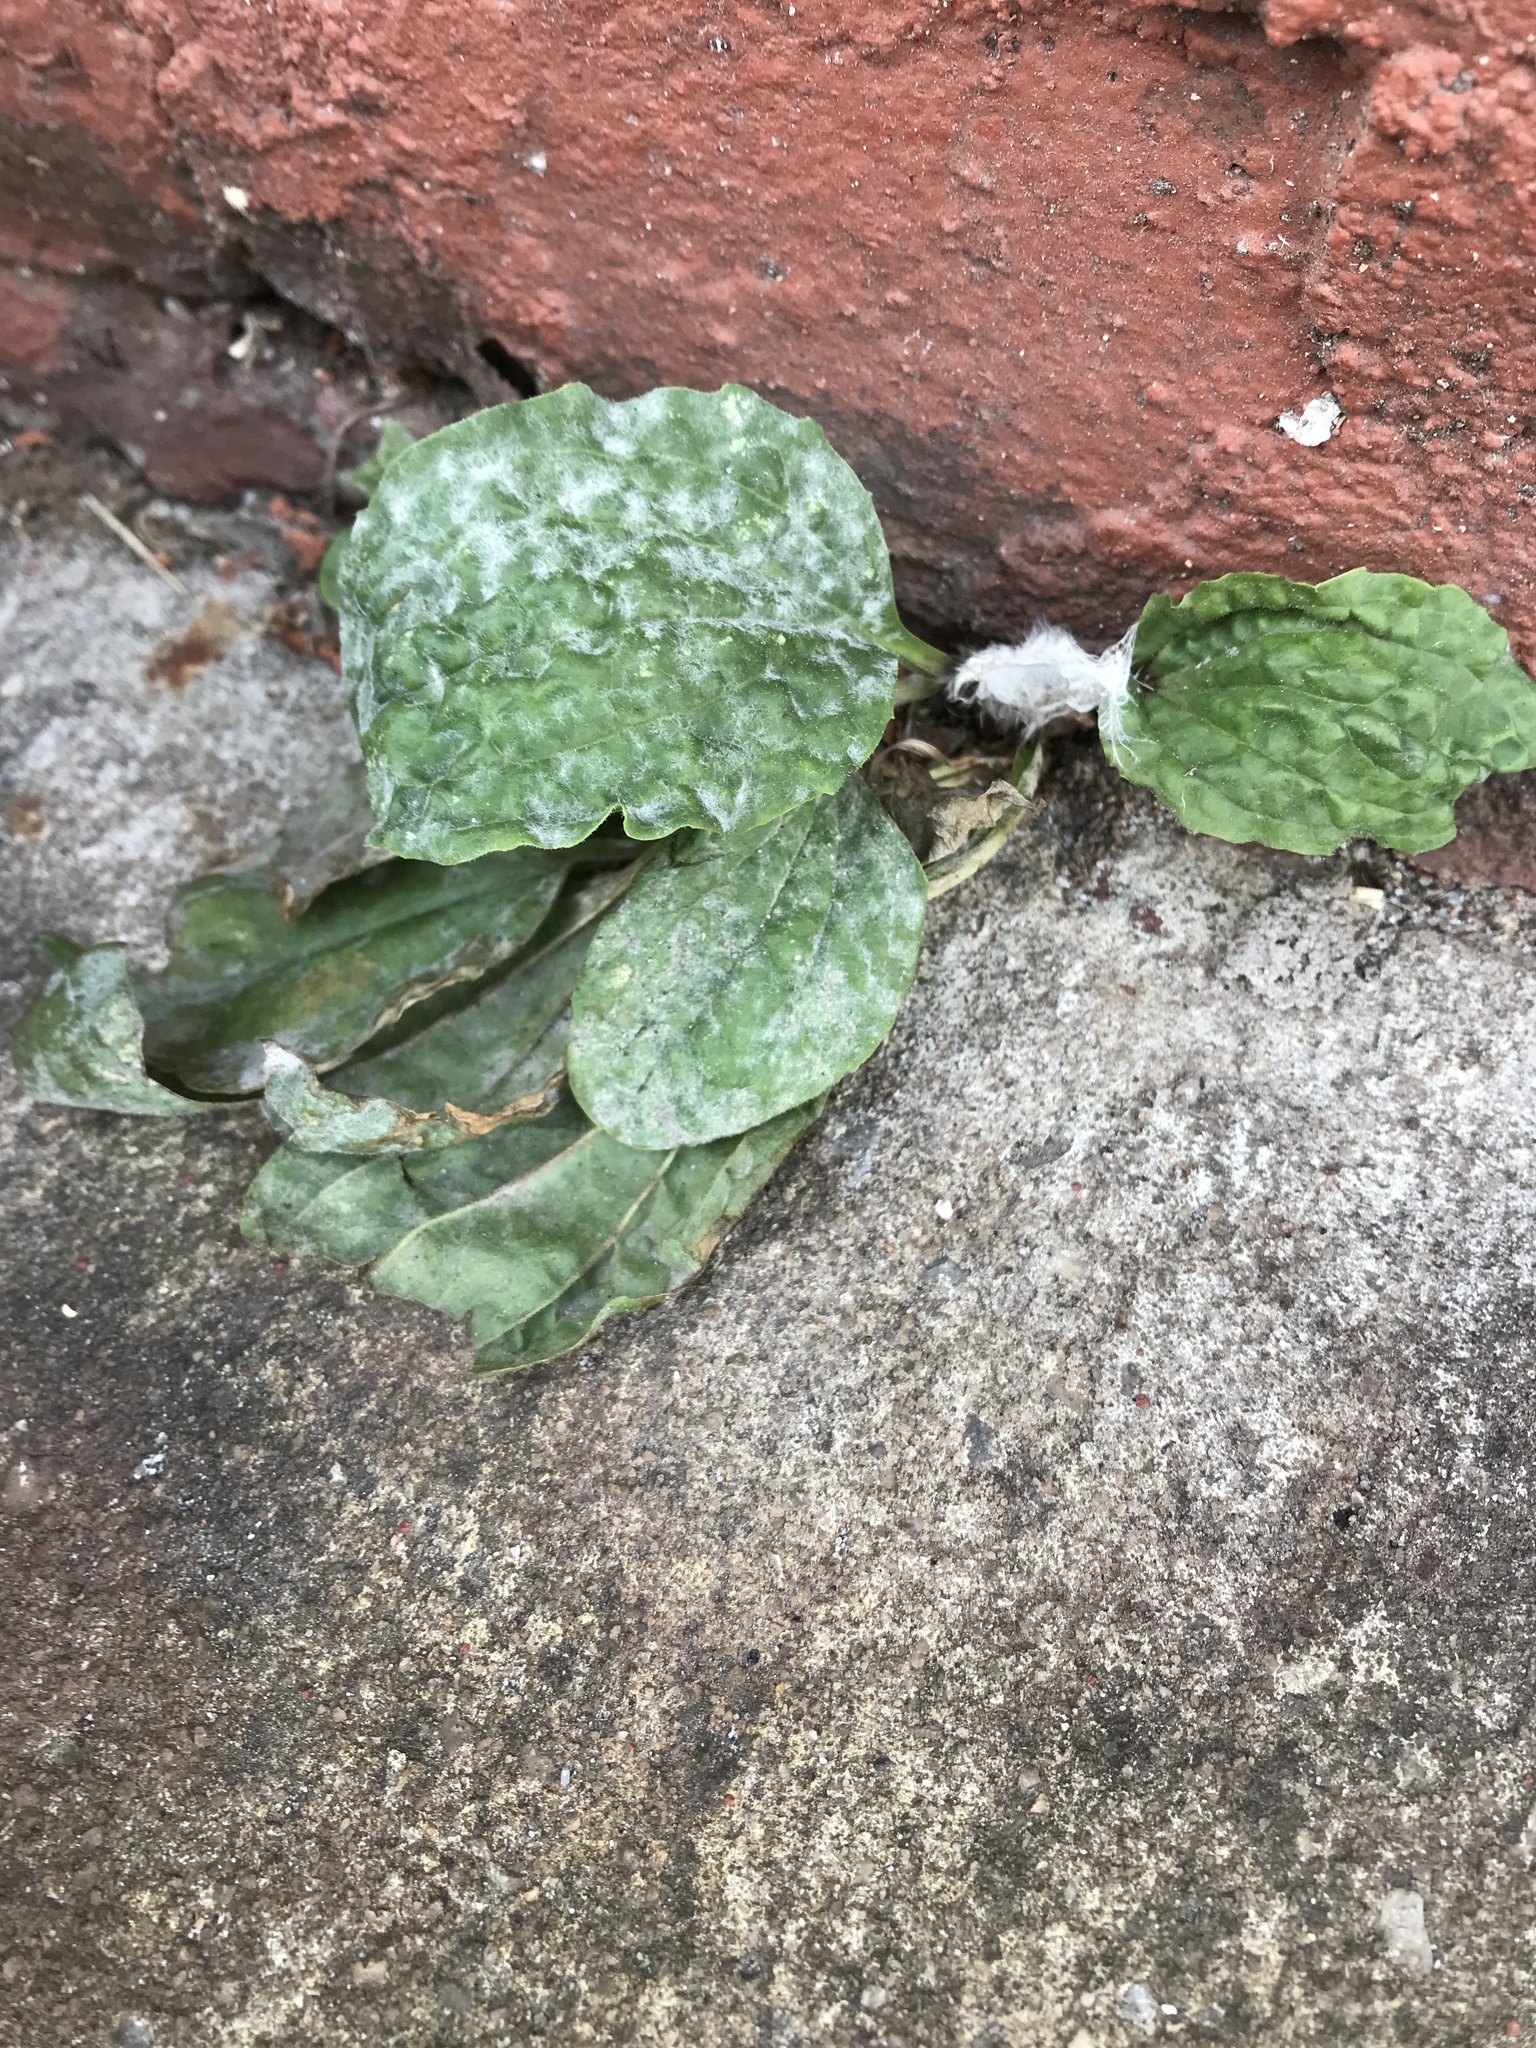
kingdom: Fungi
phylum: Ascomycota
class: Leotiomycetes
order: Helotiales
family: Erysiphaceae
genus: Golovinomyces
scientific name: Golovinomyces sordidus
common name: Plantain mildew
